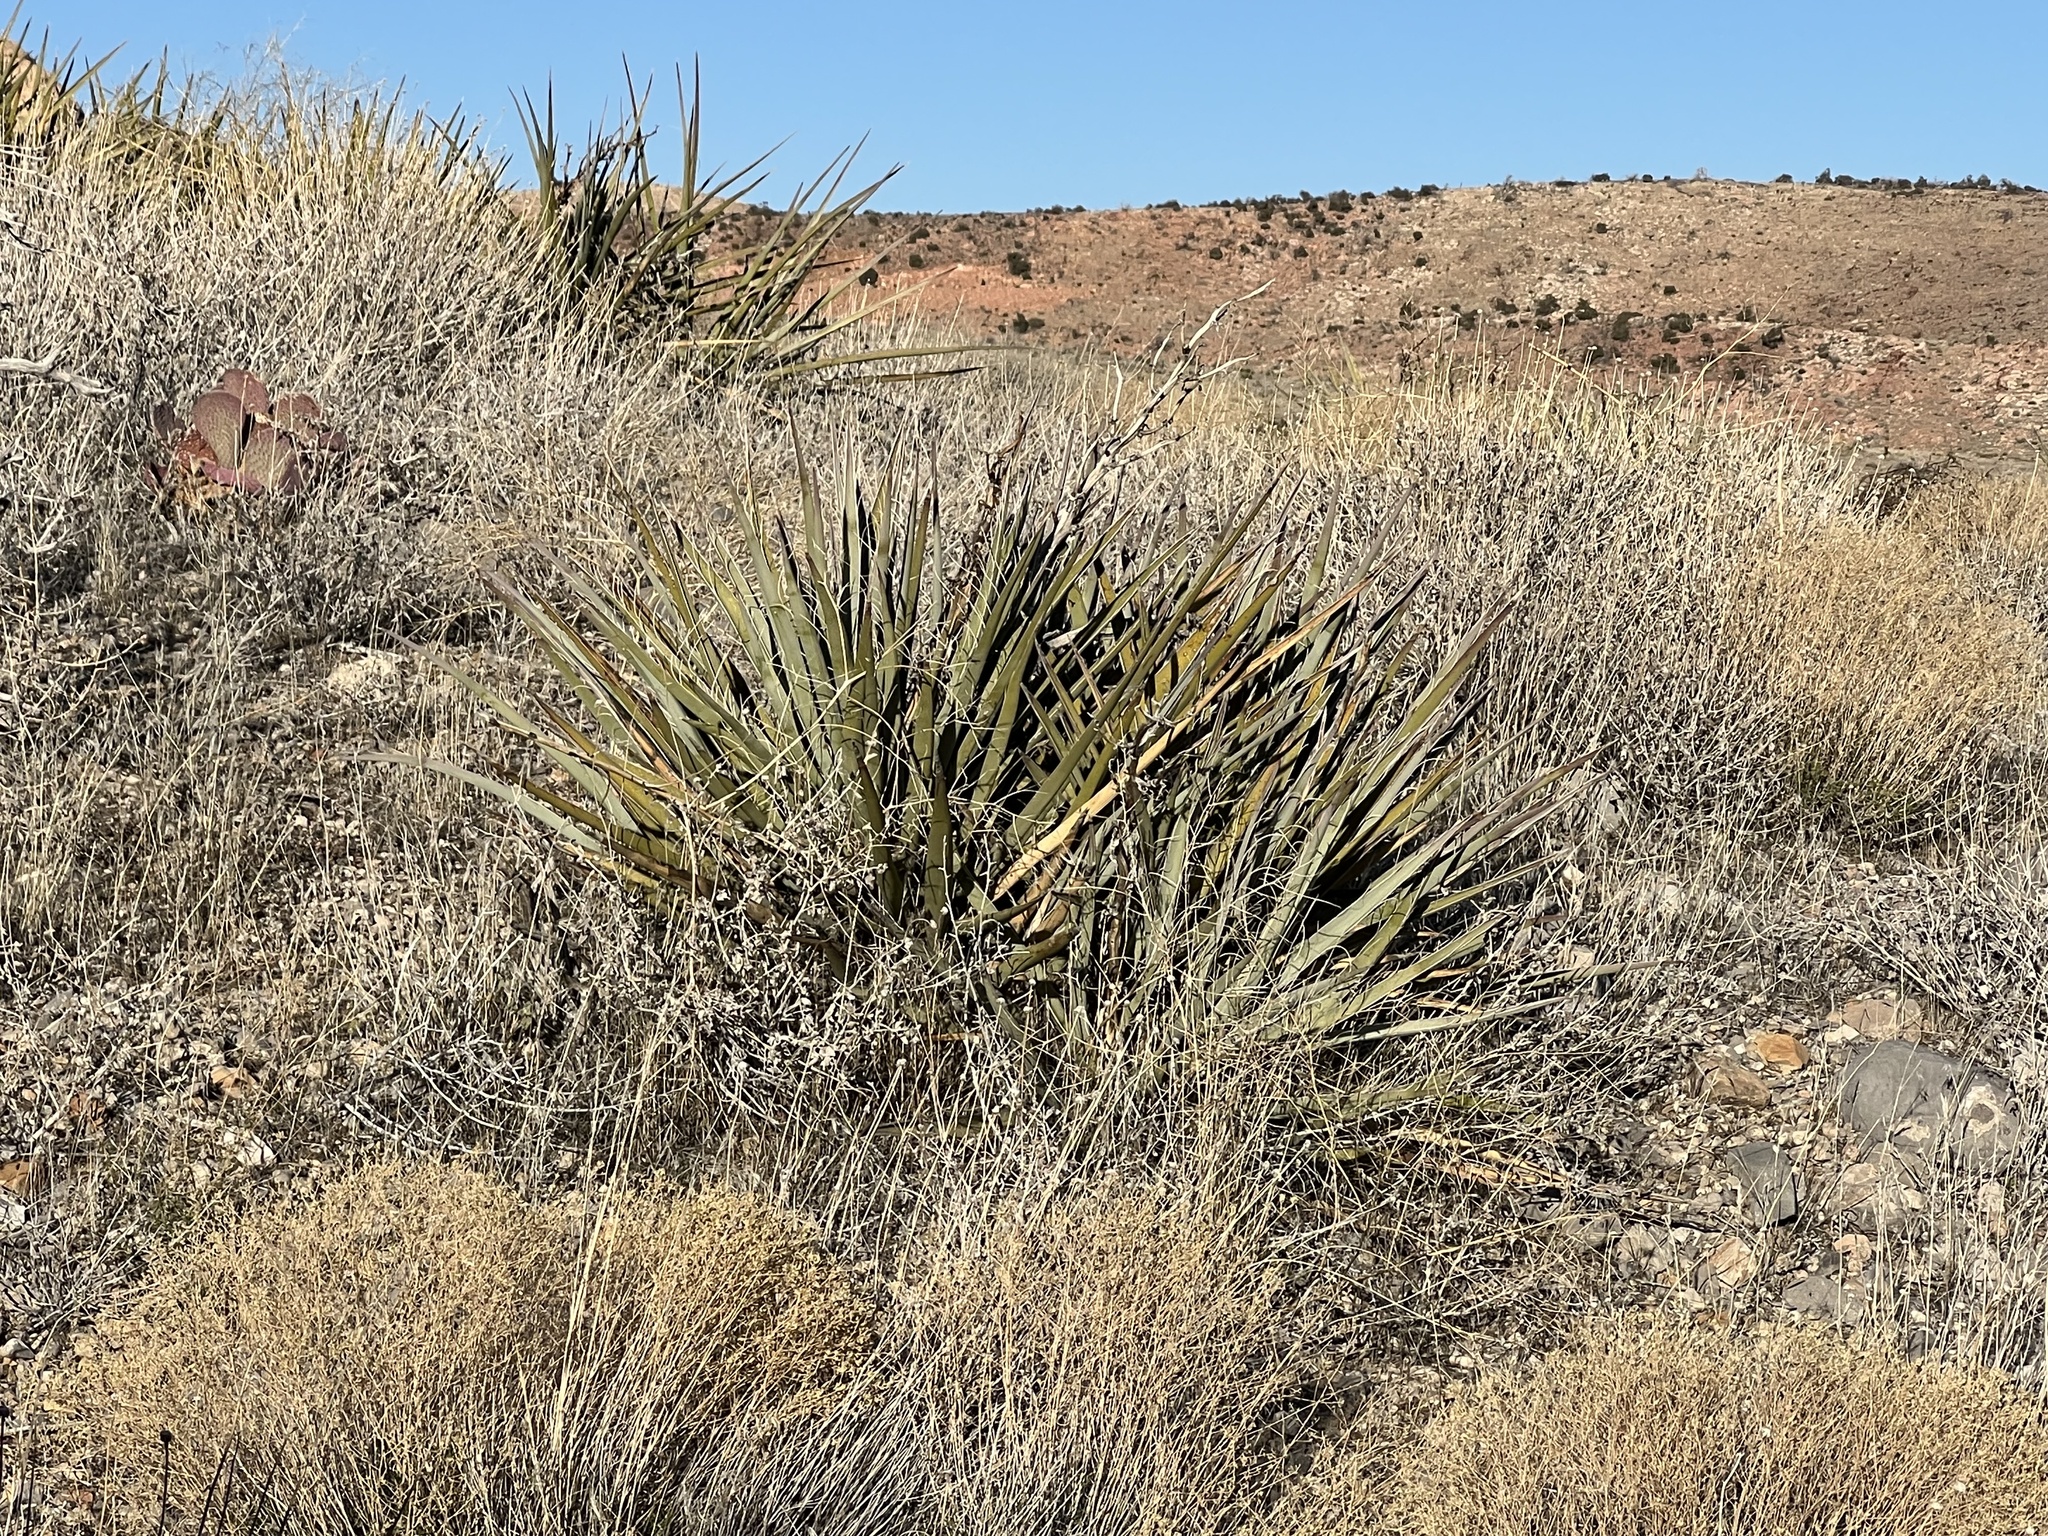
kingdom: Plantae
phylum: Tracheophyta
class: Liliopsida
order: Asparagales
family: Asparagaceae
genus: Yucca
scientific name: Yucca schidigera
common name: Mojave yucca
